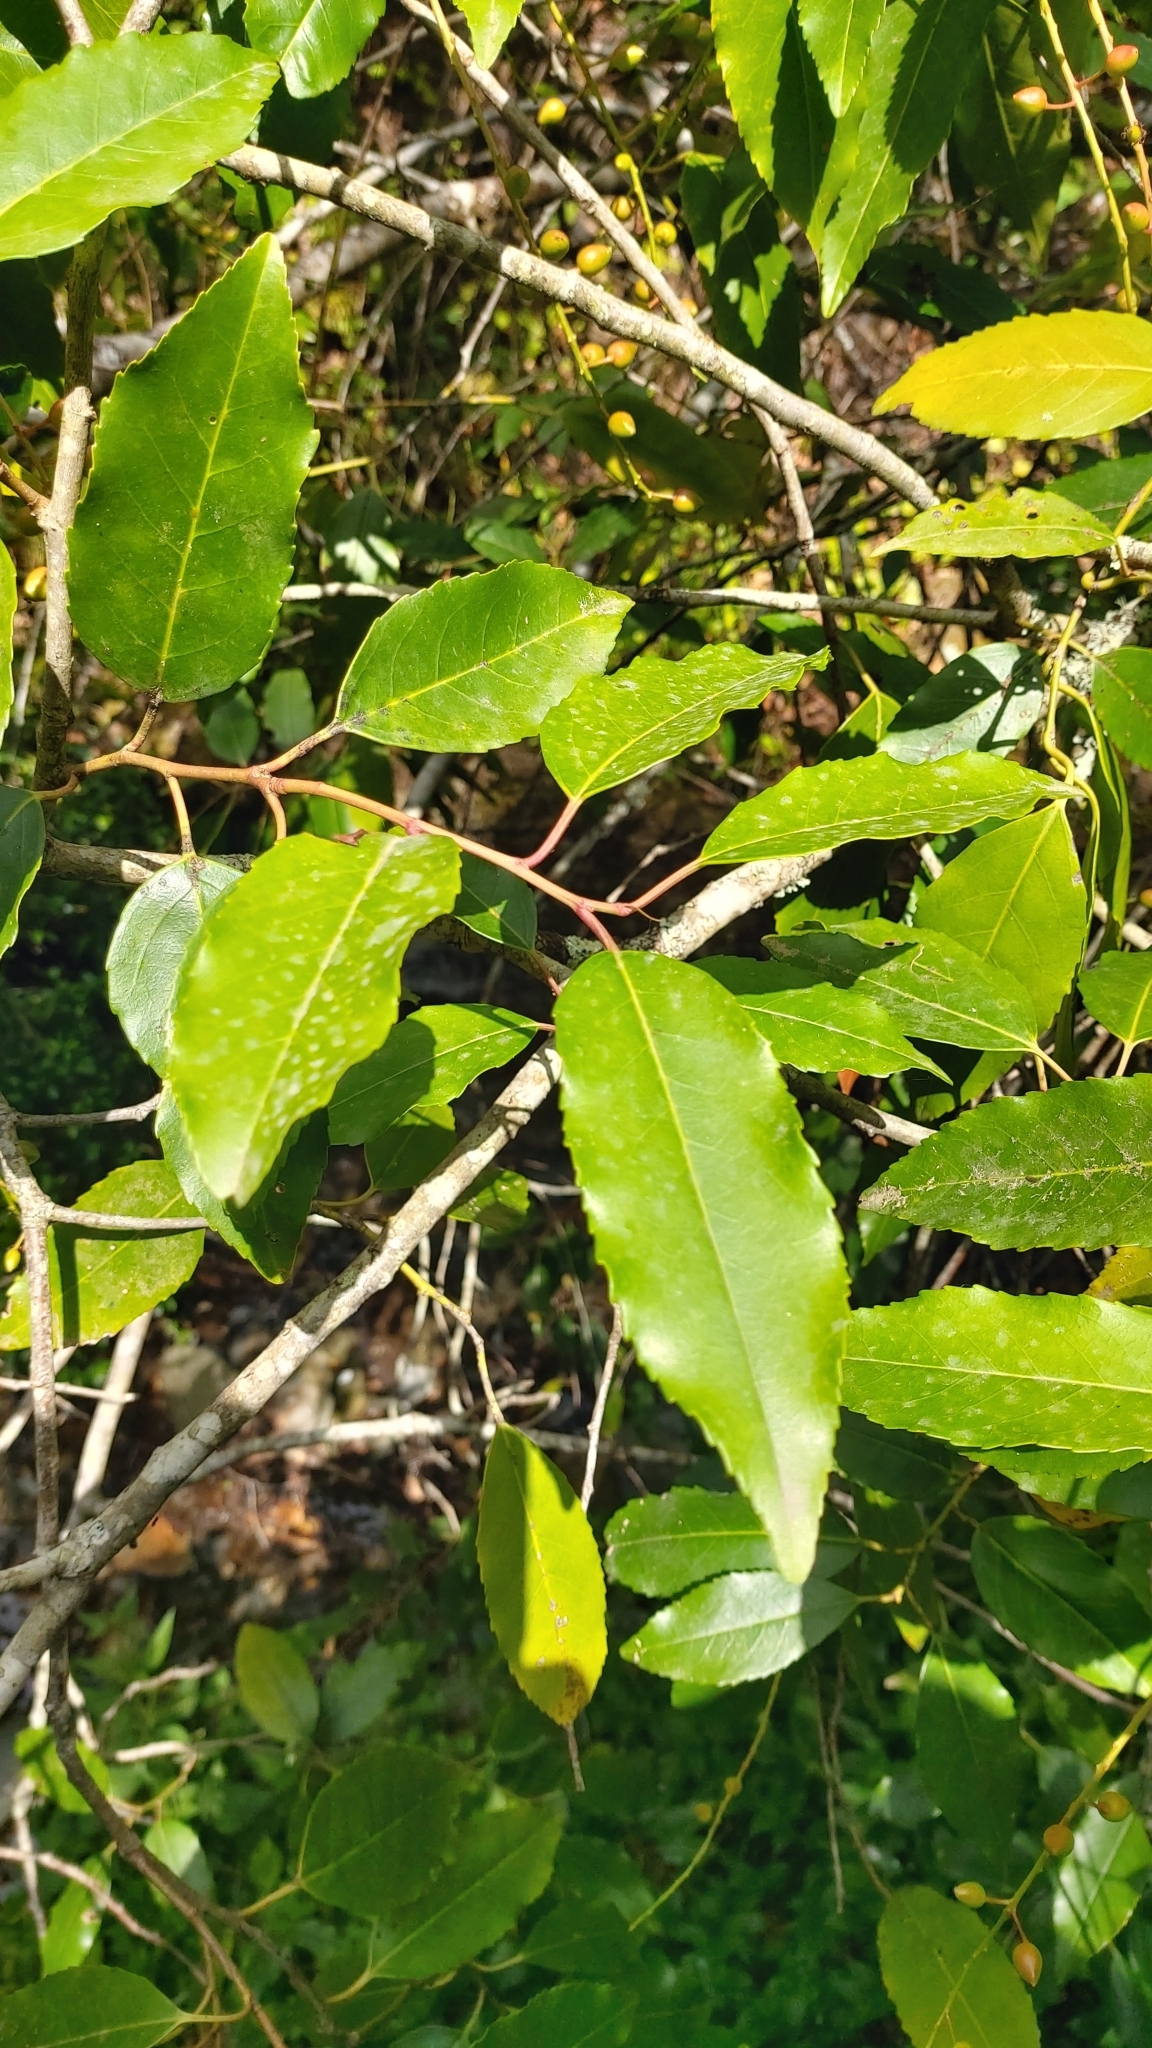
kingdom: Plantae
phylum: Tracheophyta
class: Magnoliopsida
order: Rosales
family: Rosaceae
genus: Prunus
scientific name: Prunus lusitanica
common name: Portugal laurel
